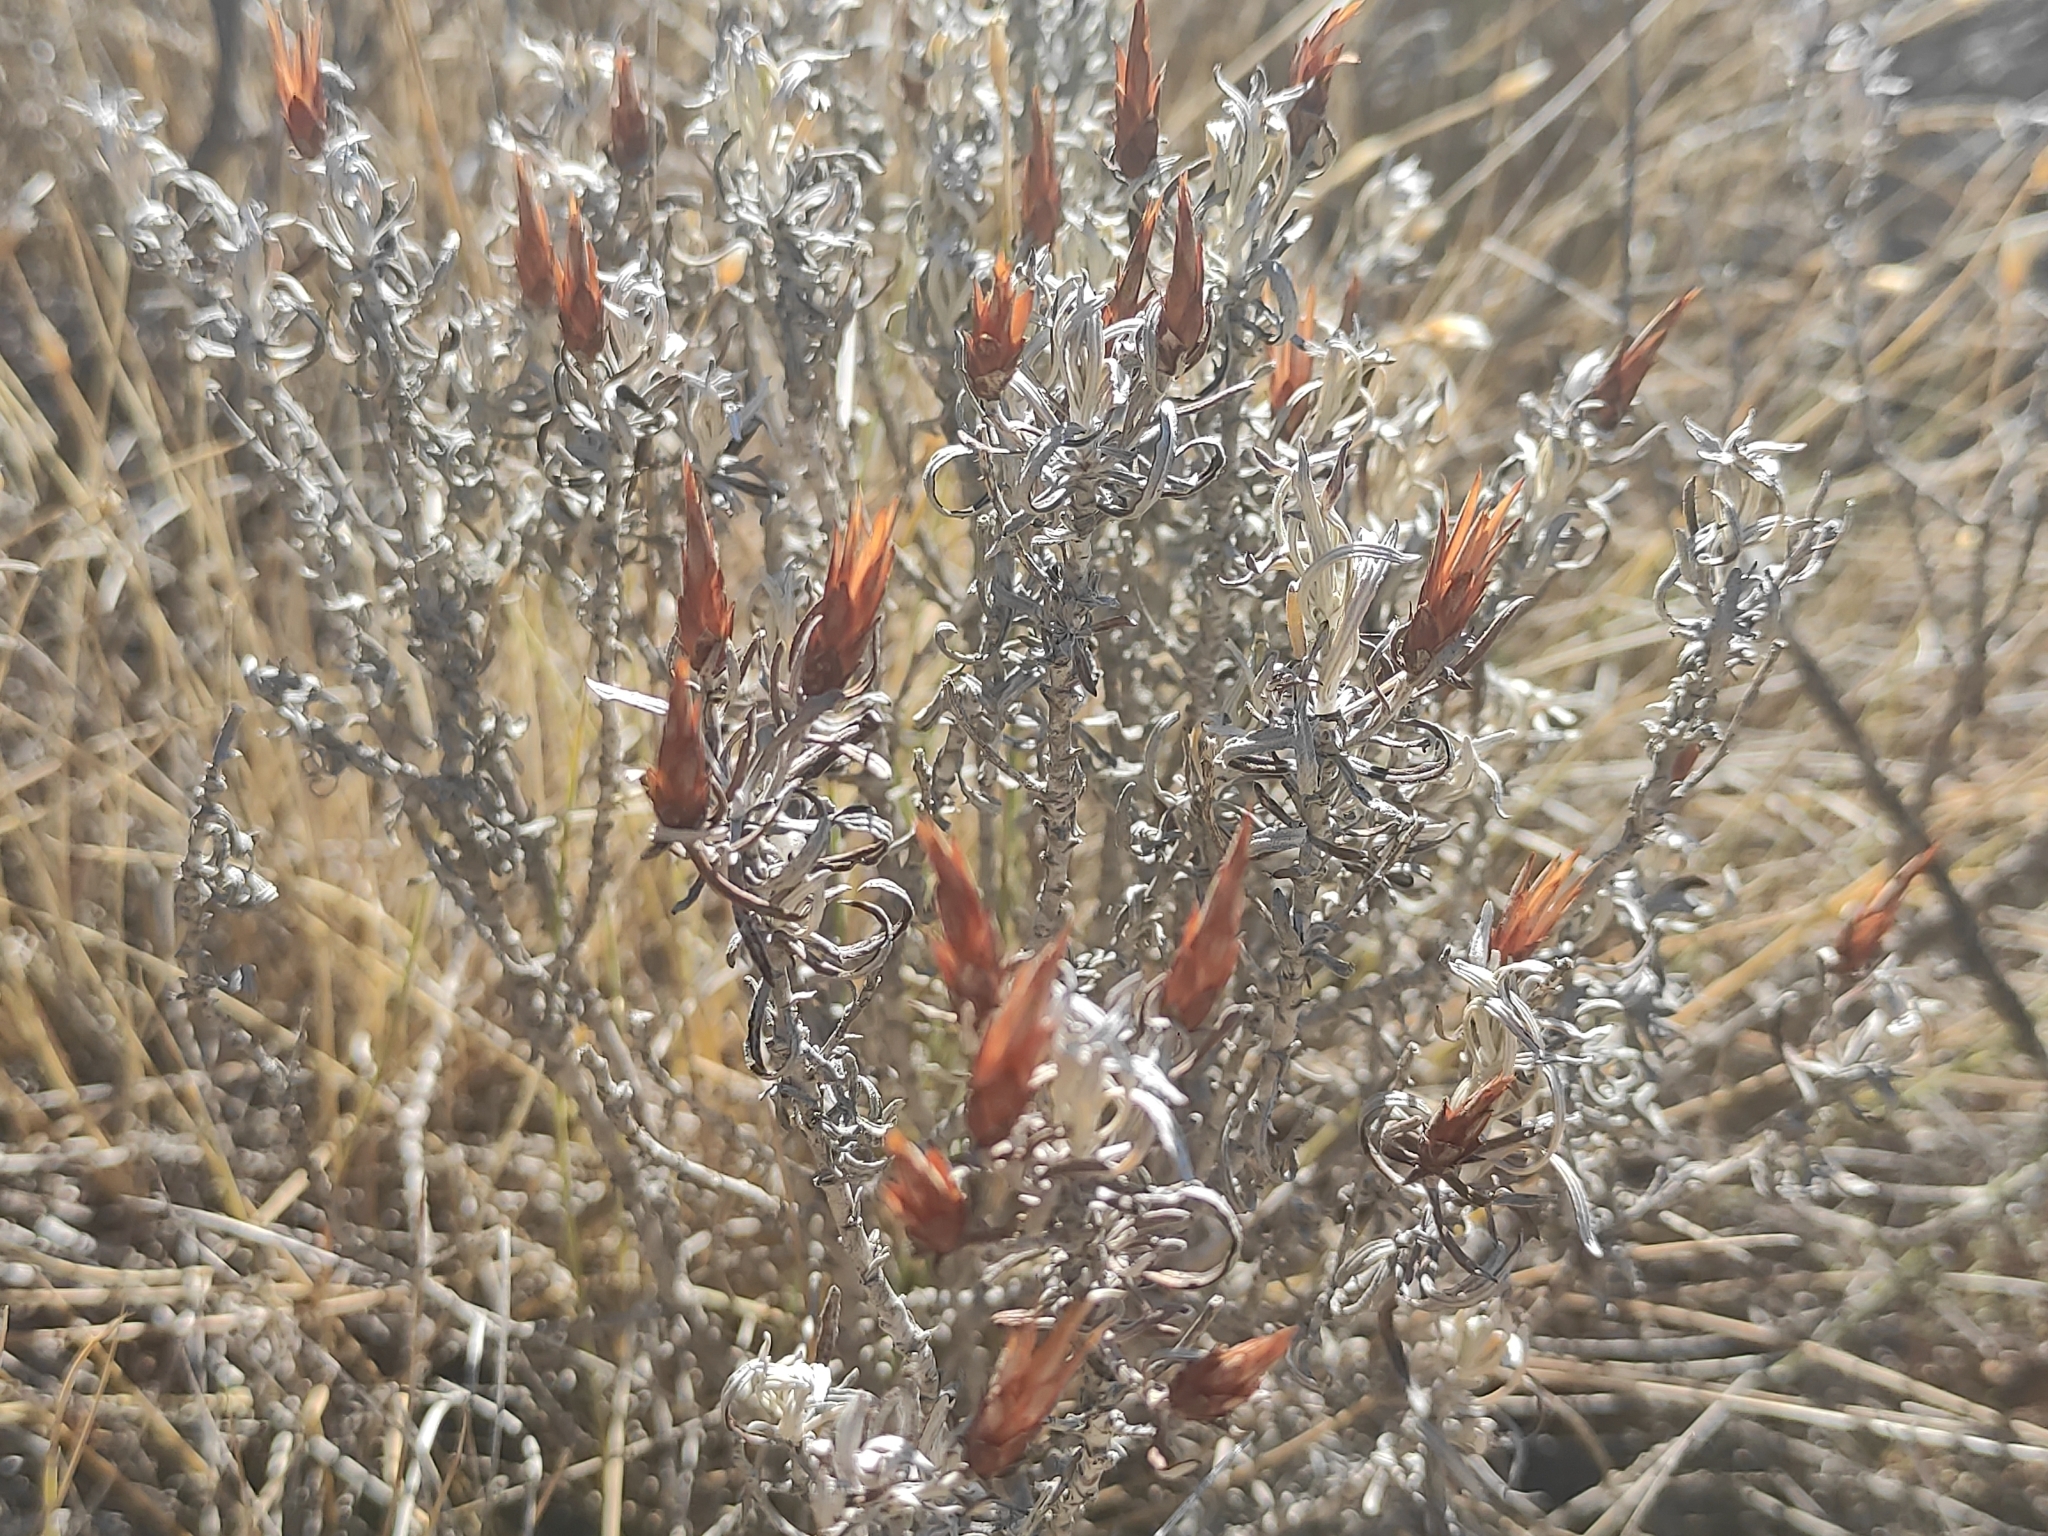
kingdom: Plantae
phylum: Tracheophyta
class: Magnoliopsida
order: Asterales
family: Asteraceae
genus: Staehelina
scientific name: Staehelina dubia
